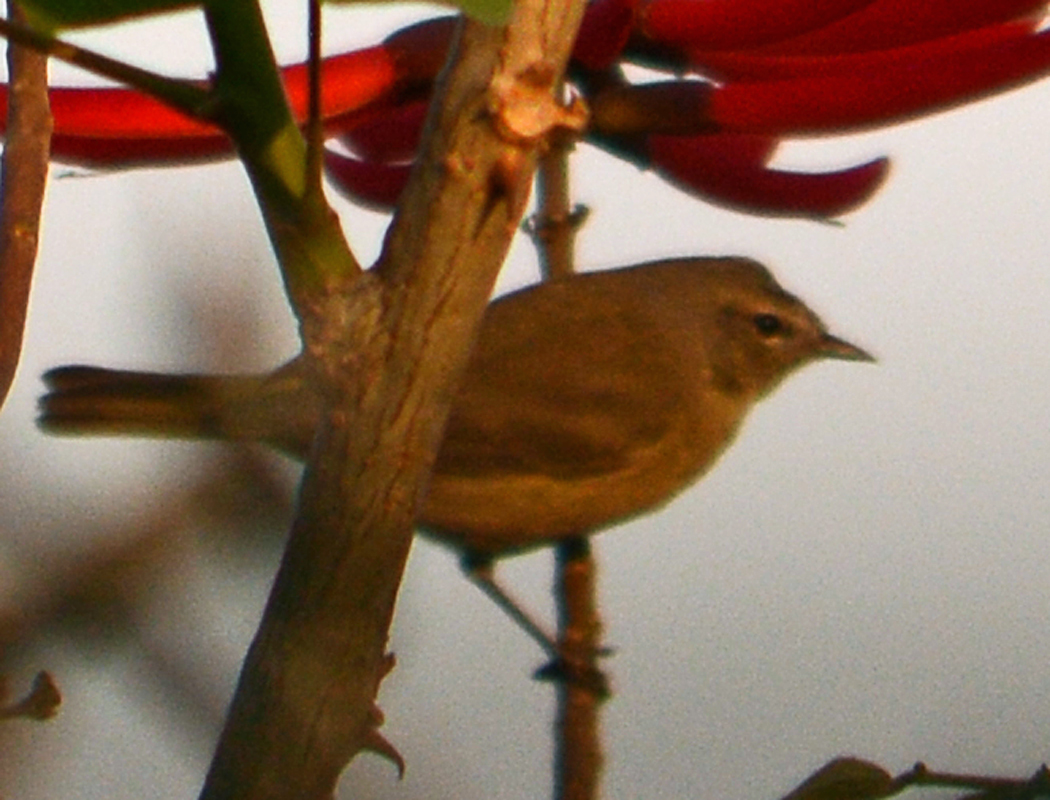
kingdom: Animalia
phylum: Chordata
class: Aves
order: Passeriformes
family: Parulidae
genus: Leiothlypis
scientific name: Leiothlypis celata
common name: Orange-crowned warbler
